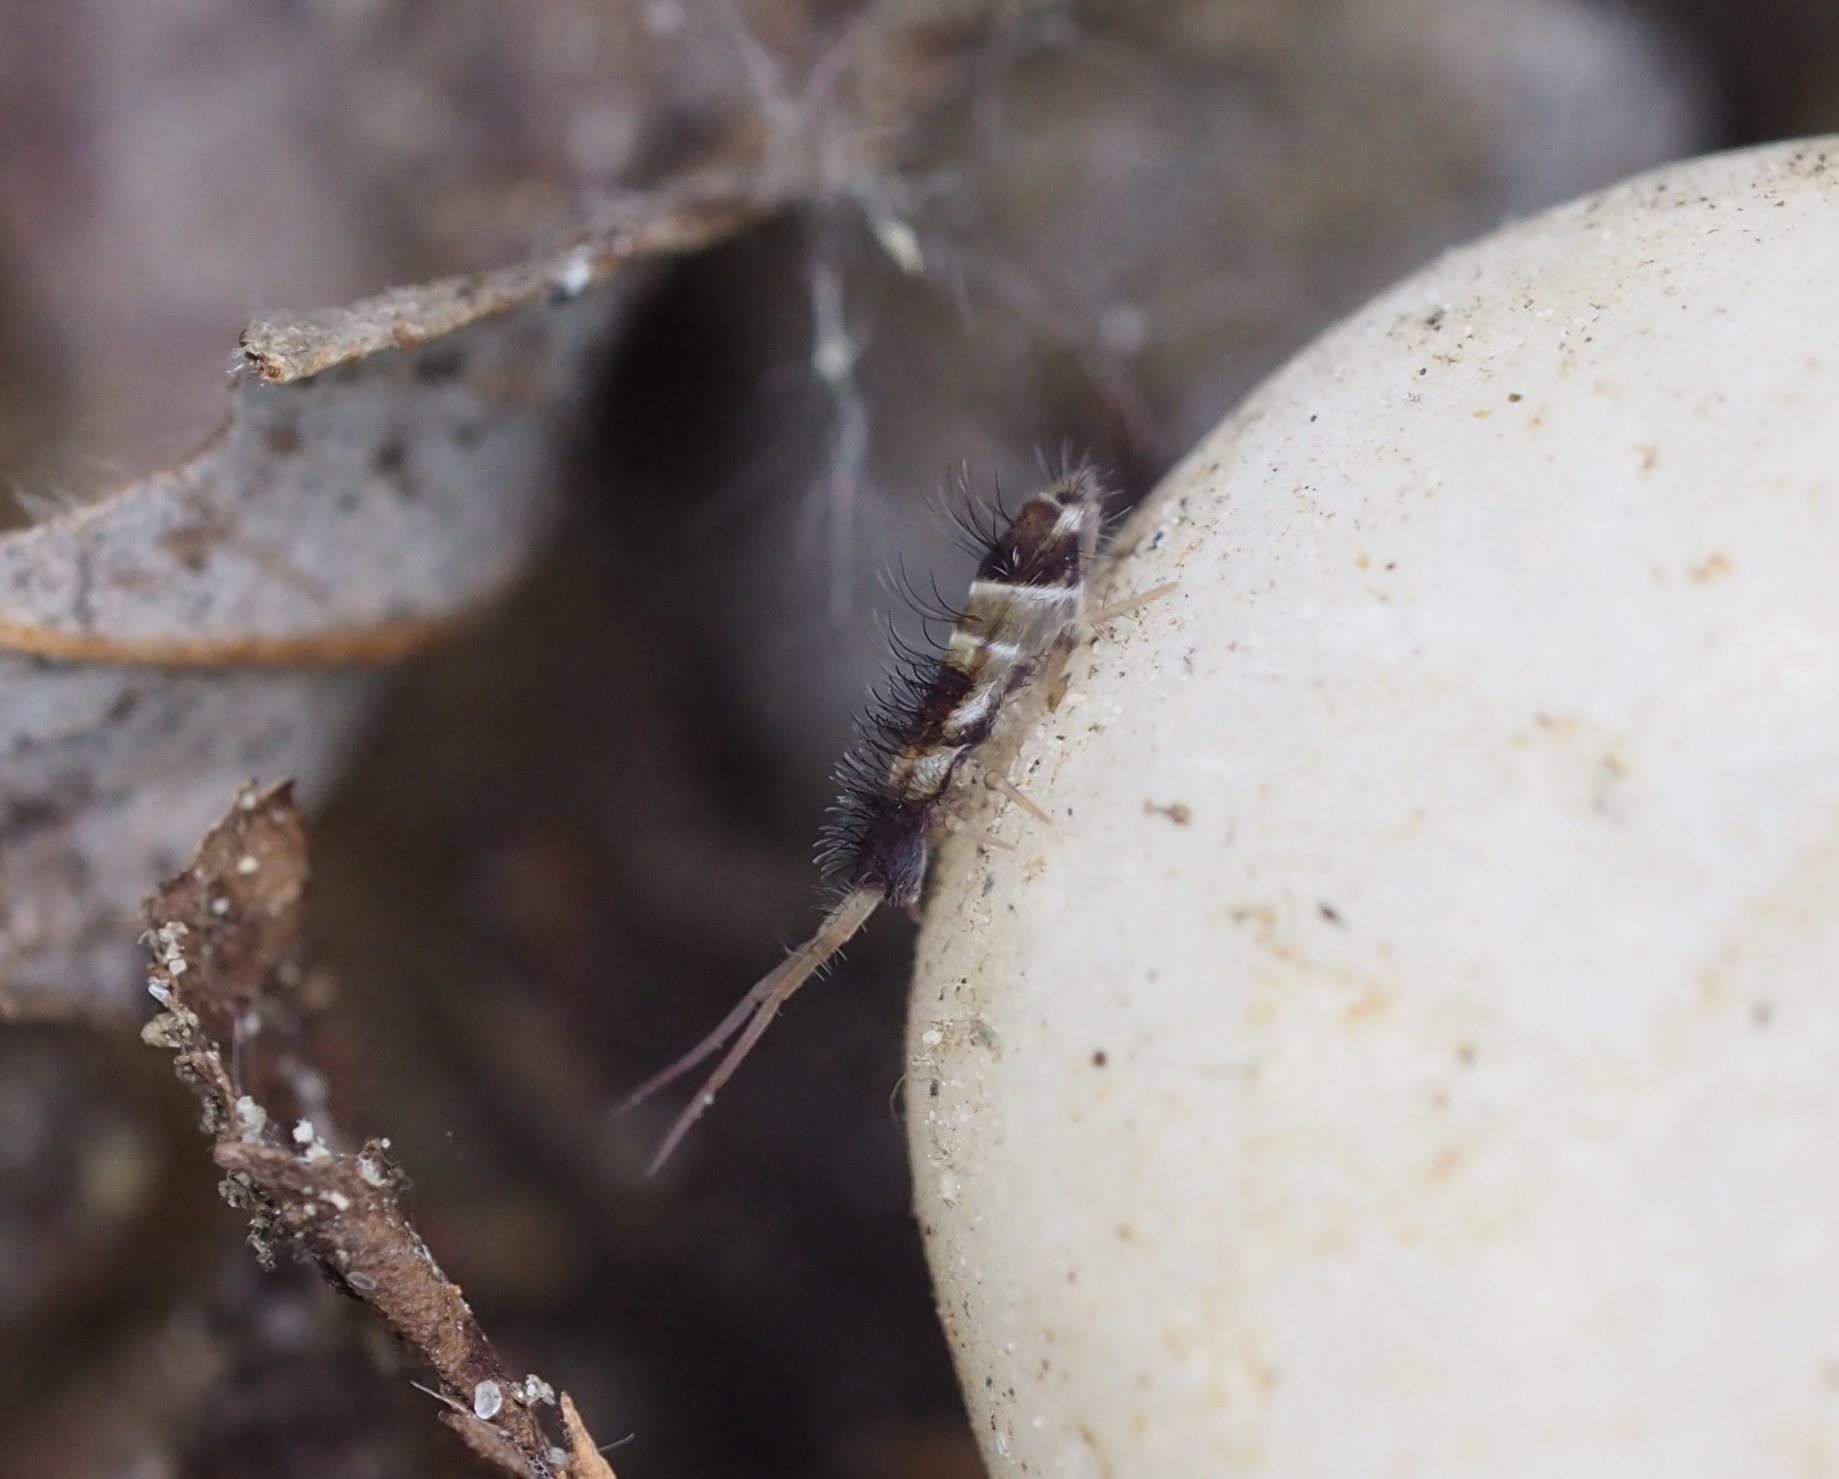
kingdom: Animalia
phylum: Arthropoda
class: Collembola
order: Entomobryomorpha
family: Orchesellidae
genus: Orchesella
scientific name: Orchesella pannonica
